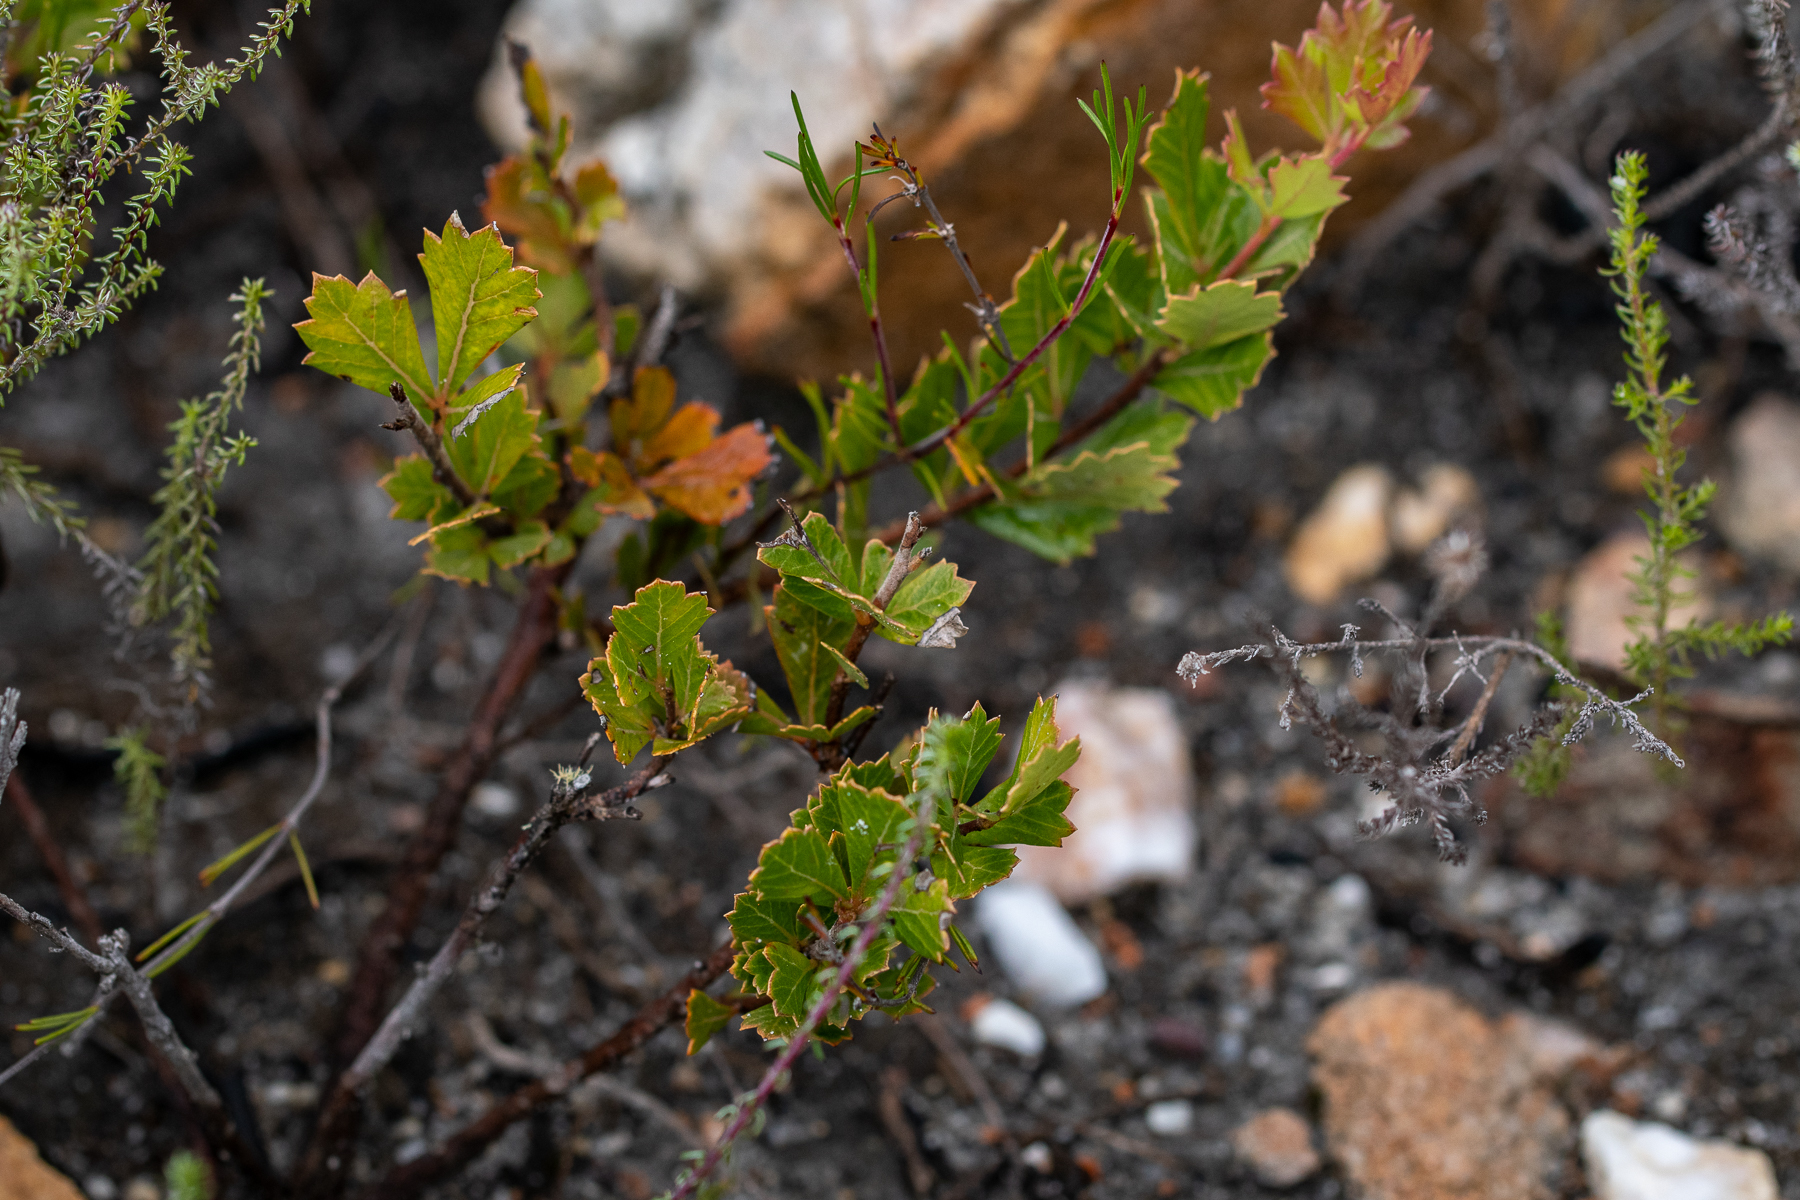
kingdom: Plantae
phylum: Tracheophyta
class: Magnoliopsida
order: Sapindales
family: Anacardiaceae
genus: Searsia
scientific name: Searsia cuneifolia
